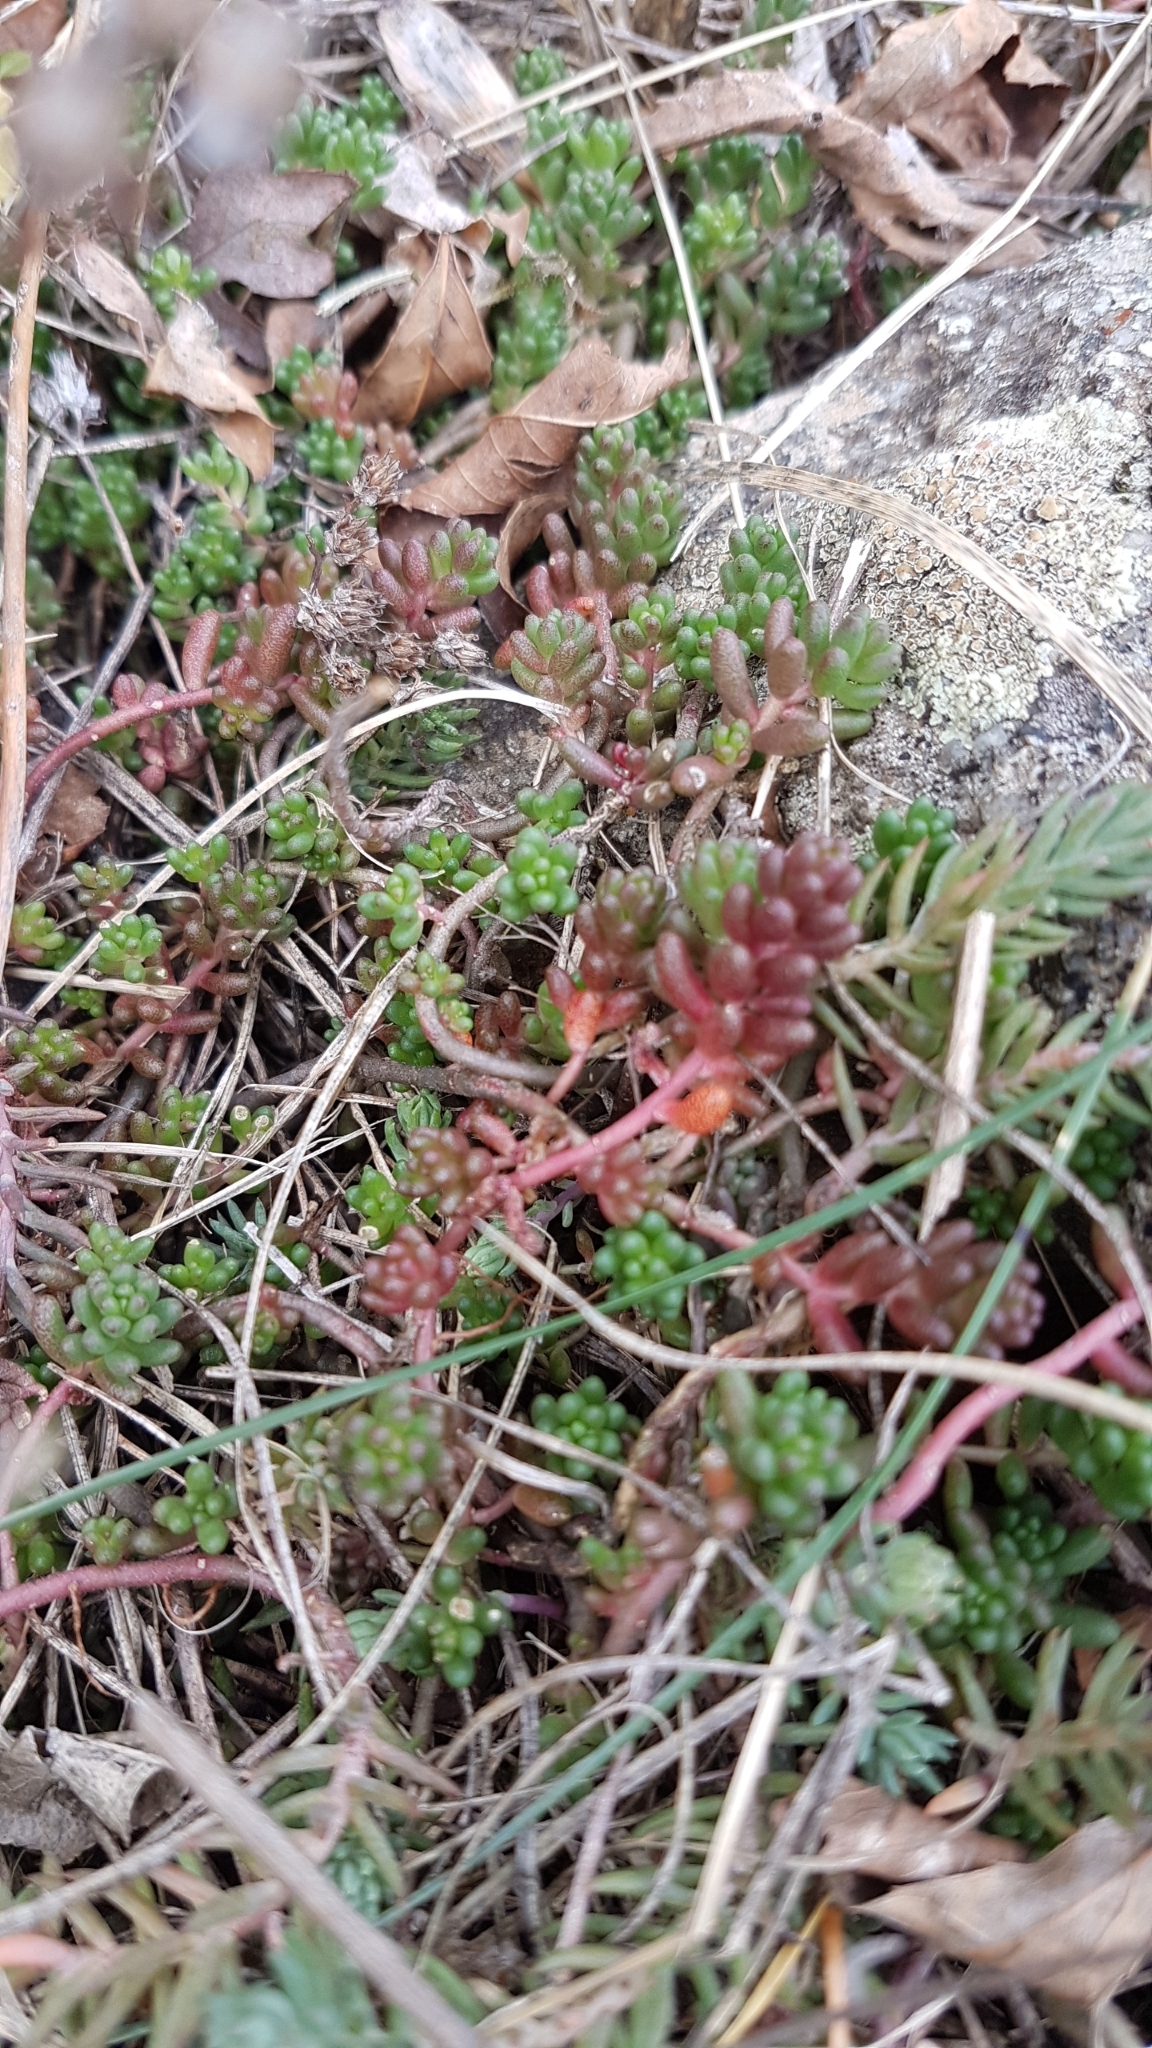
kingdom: Plantae
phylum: Tracheophyta
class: Magnoliopsida
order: Saxifragales
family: Crassulaceae
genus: Sedum
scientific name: Sedum album
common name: White stonecrop
